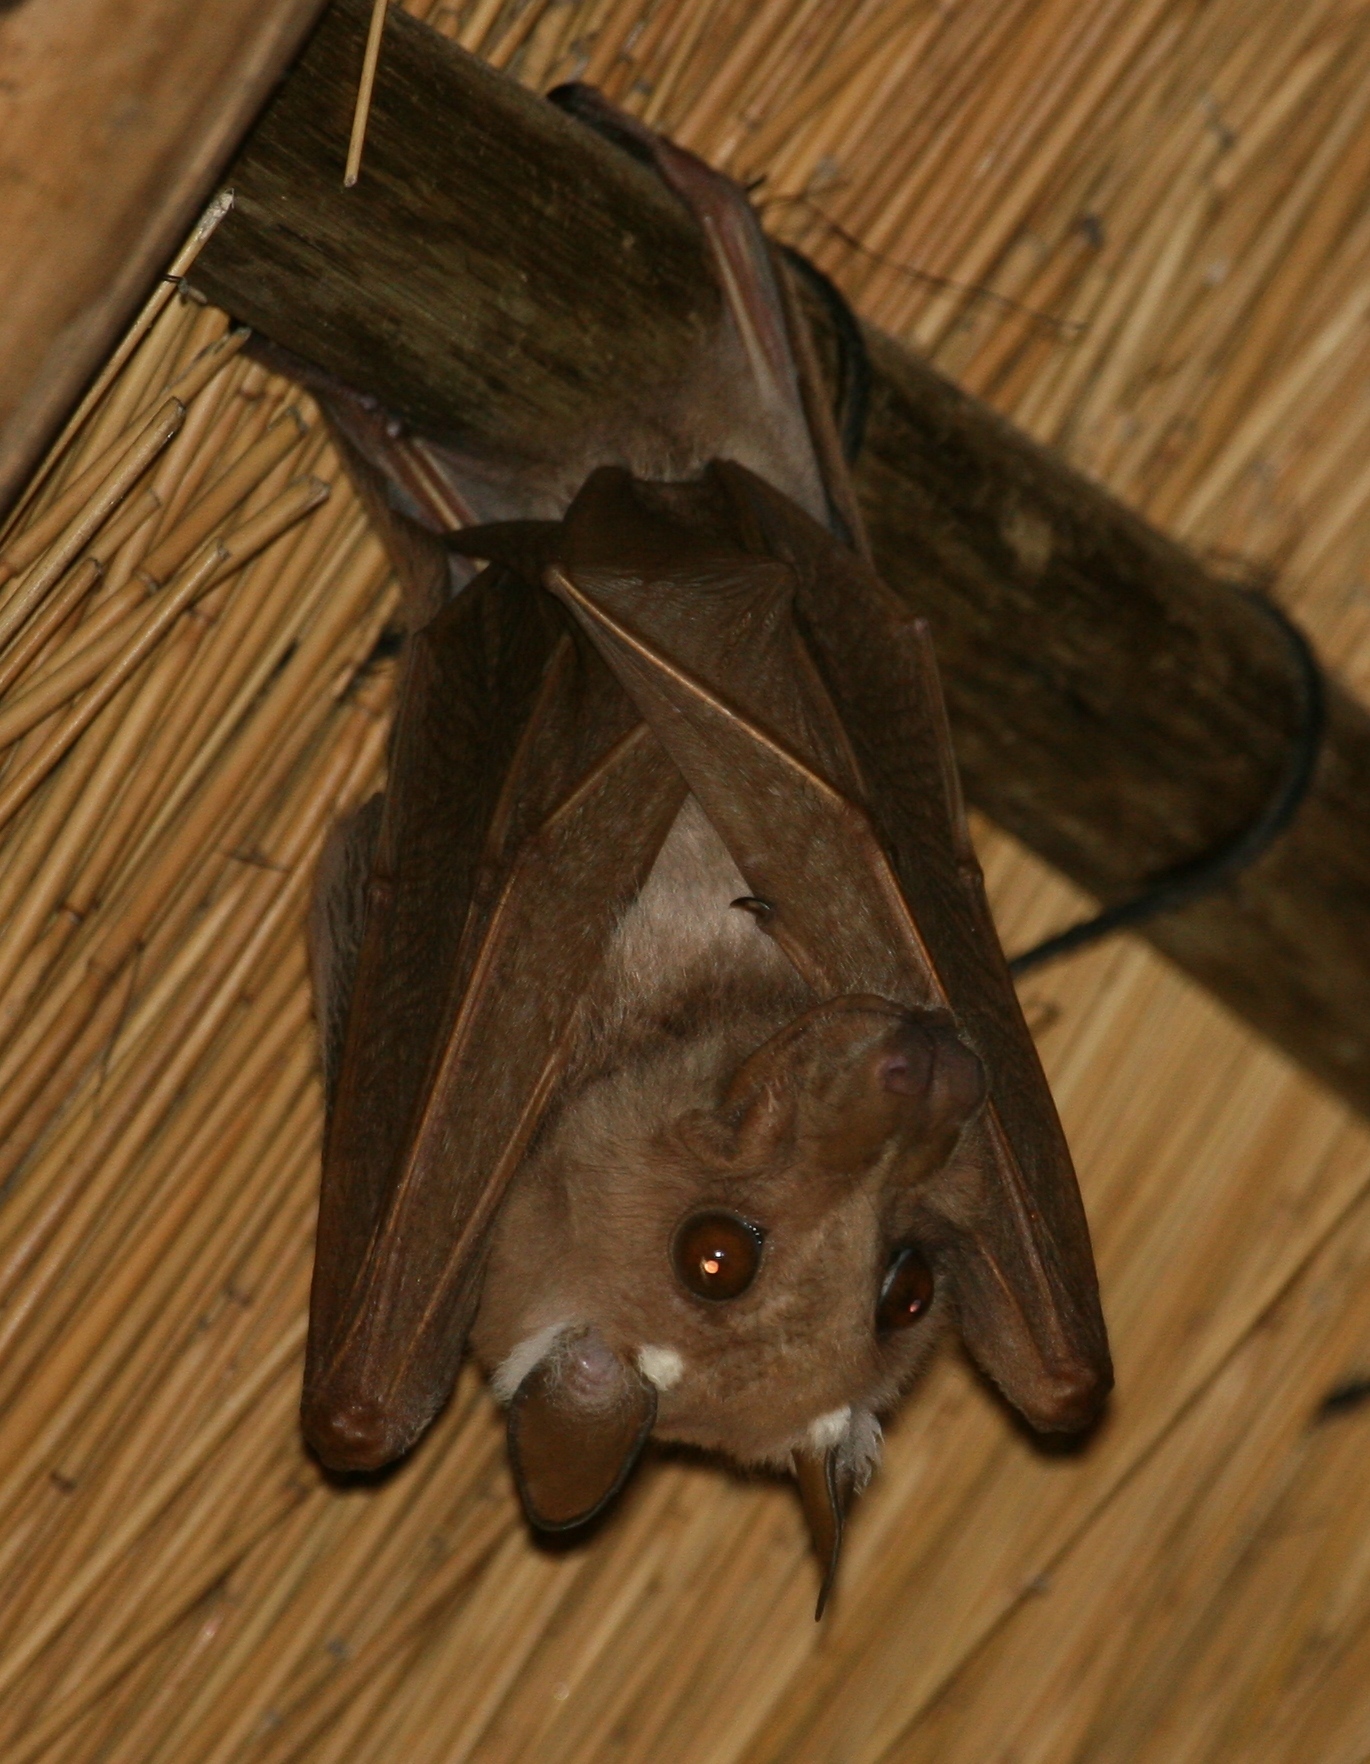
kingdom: Animalia
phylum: Chordata
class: Mammalia
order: Chiroptera
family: Pteropodidae
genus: Epomophorus
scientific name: Epomophorus crypturus
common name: Smaller epauletted fruit bat
